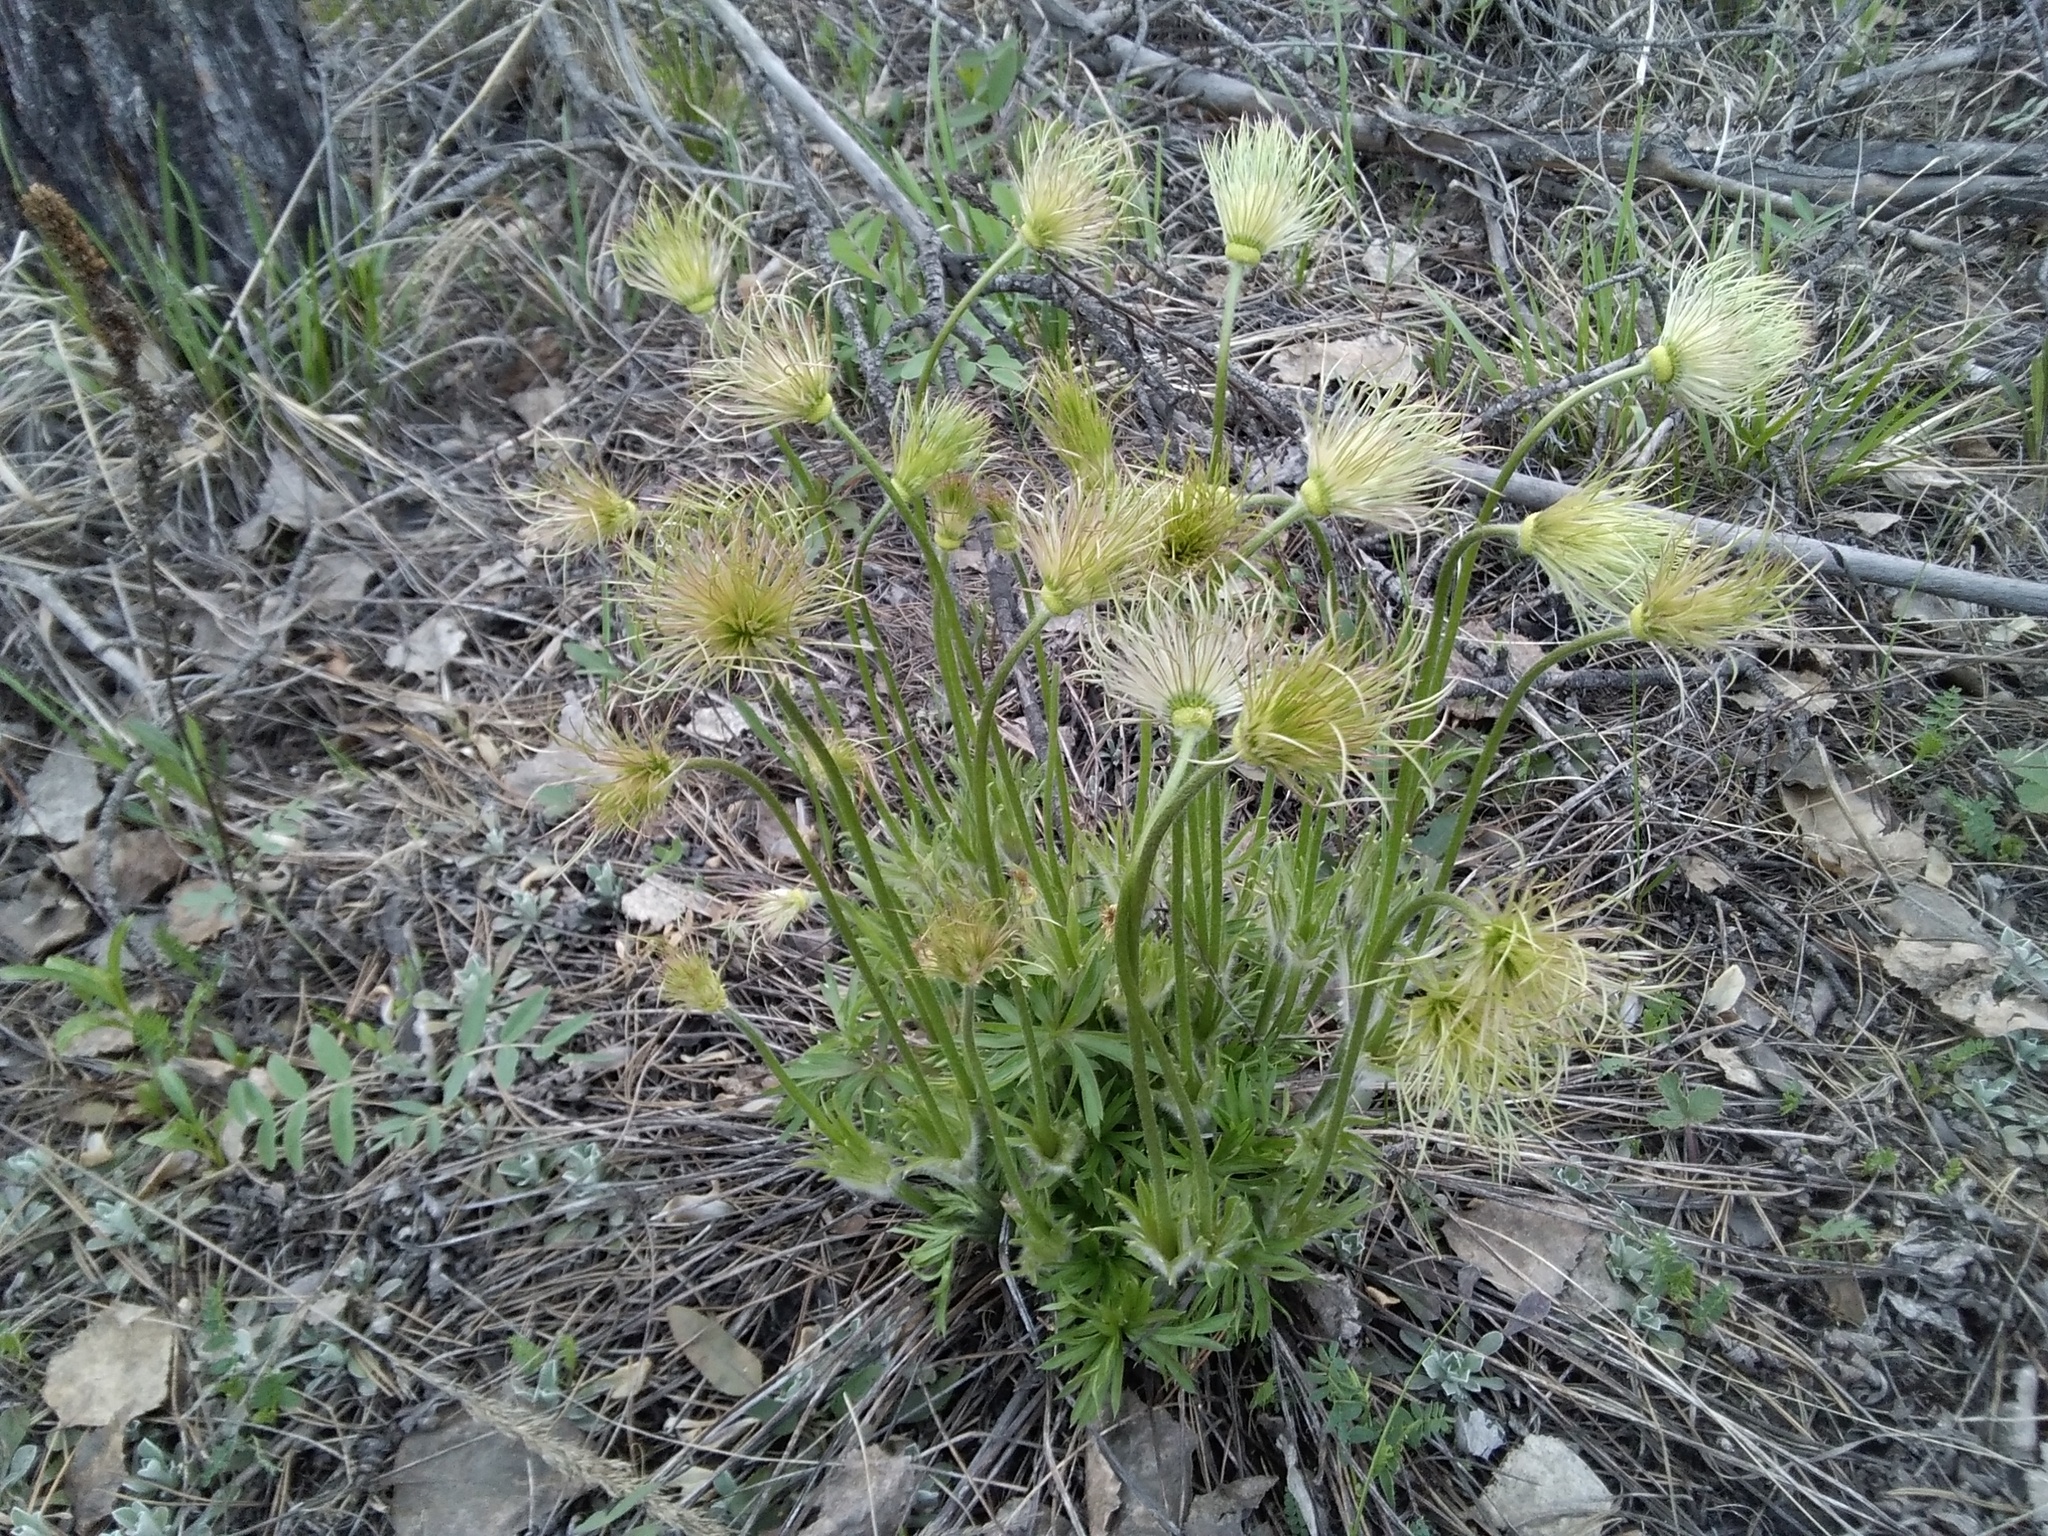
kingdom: Plantae
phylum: Tracheophyta
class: Magnoliopsida
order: Ranunculales
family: Ranunculaceae
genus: Pulsatilla
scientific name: Pulsatilla patens
